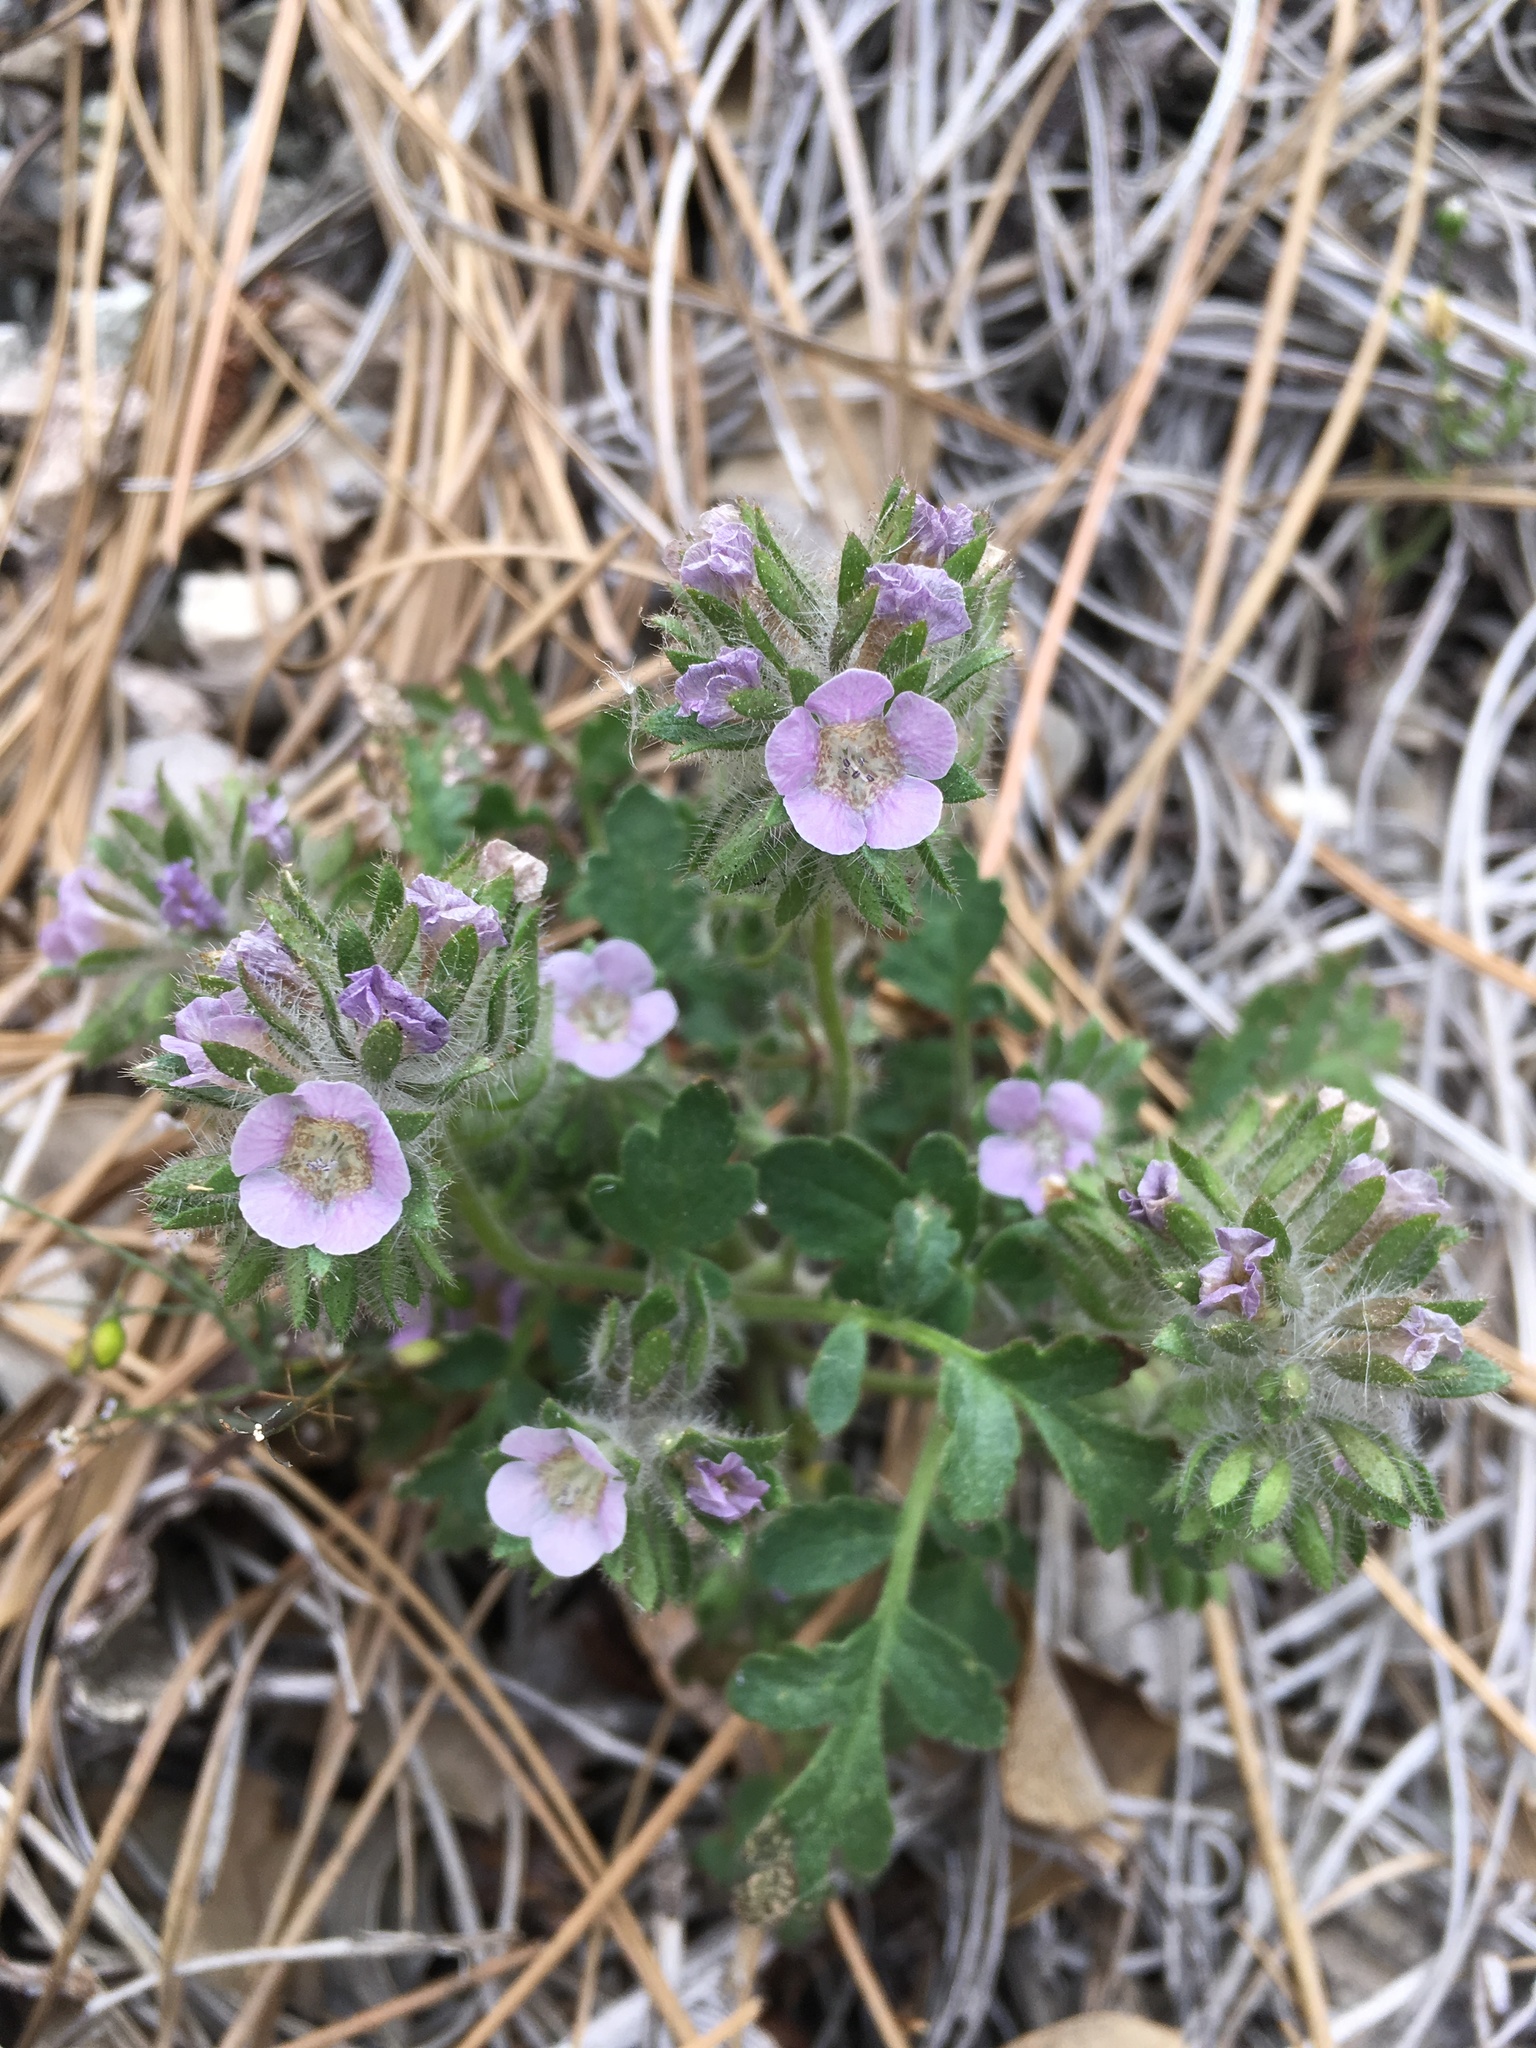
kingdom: Plantae
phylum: Tracheophyta
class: Magnoliopsida
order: Boraginales
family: Hydrophyllaceae
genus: Phacelia
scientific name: Phacelia cryptantha
